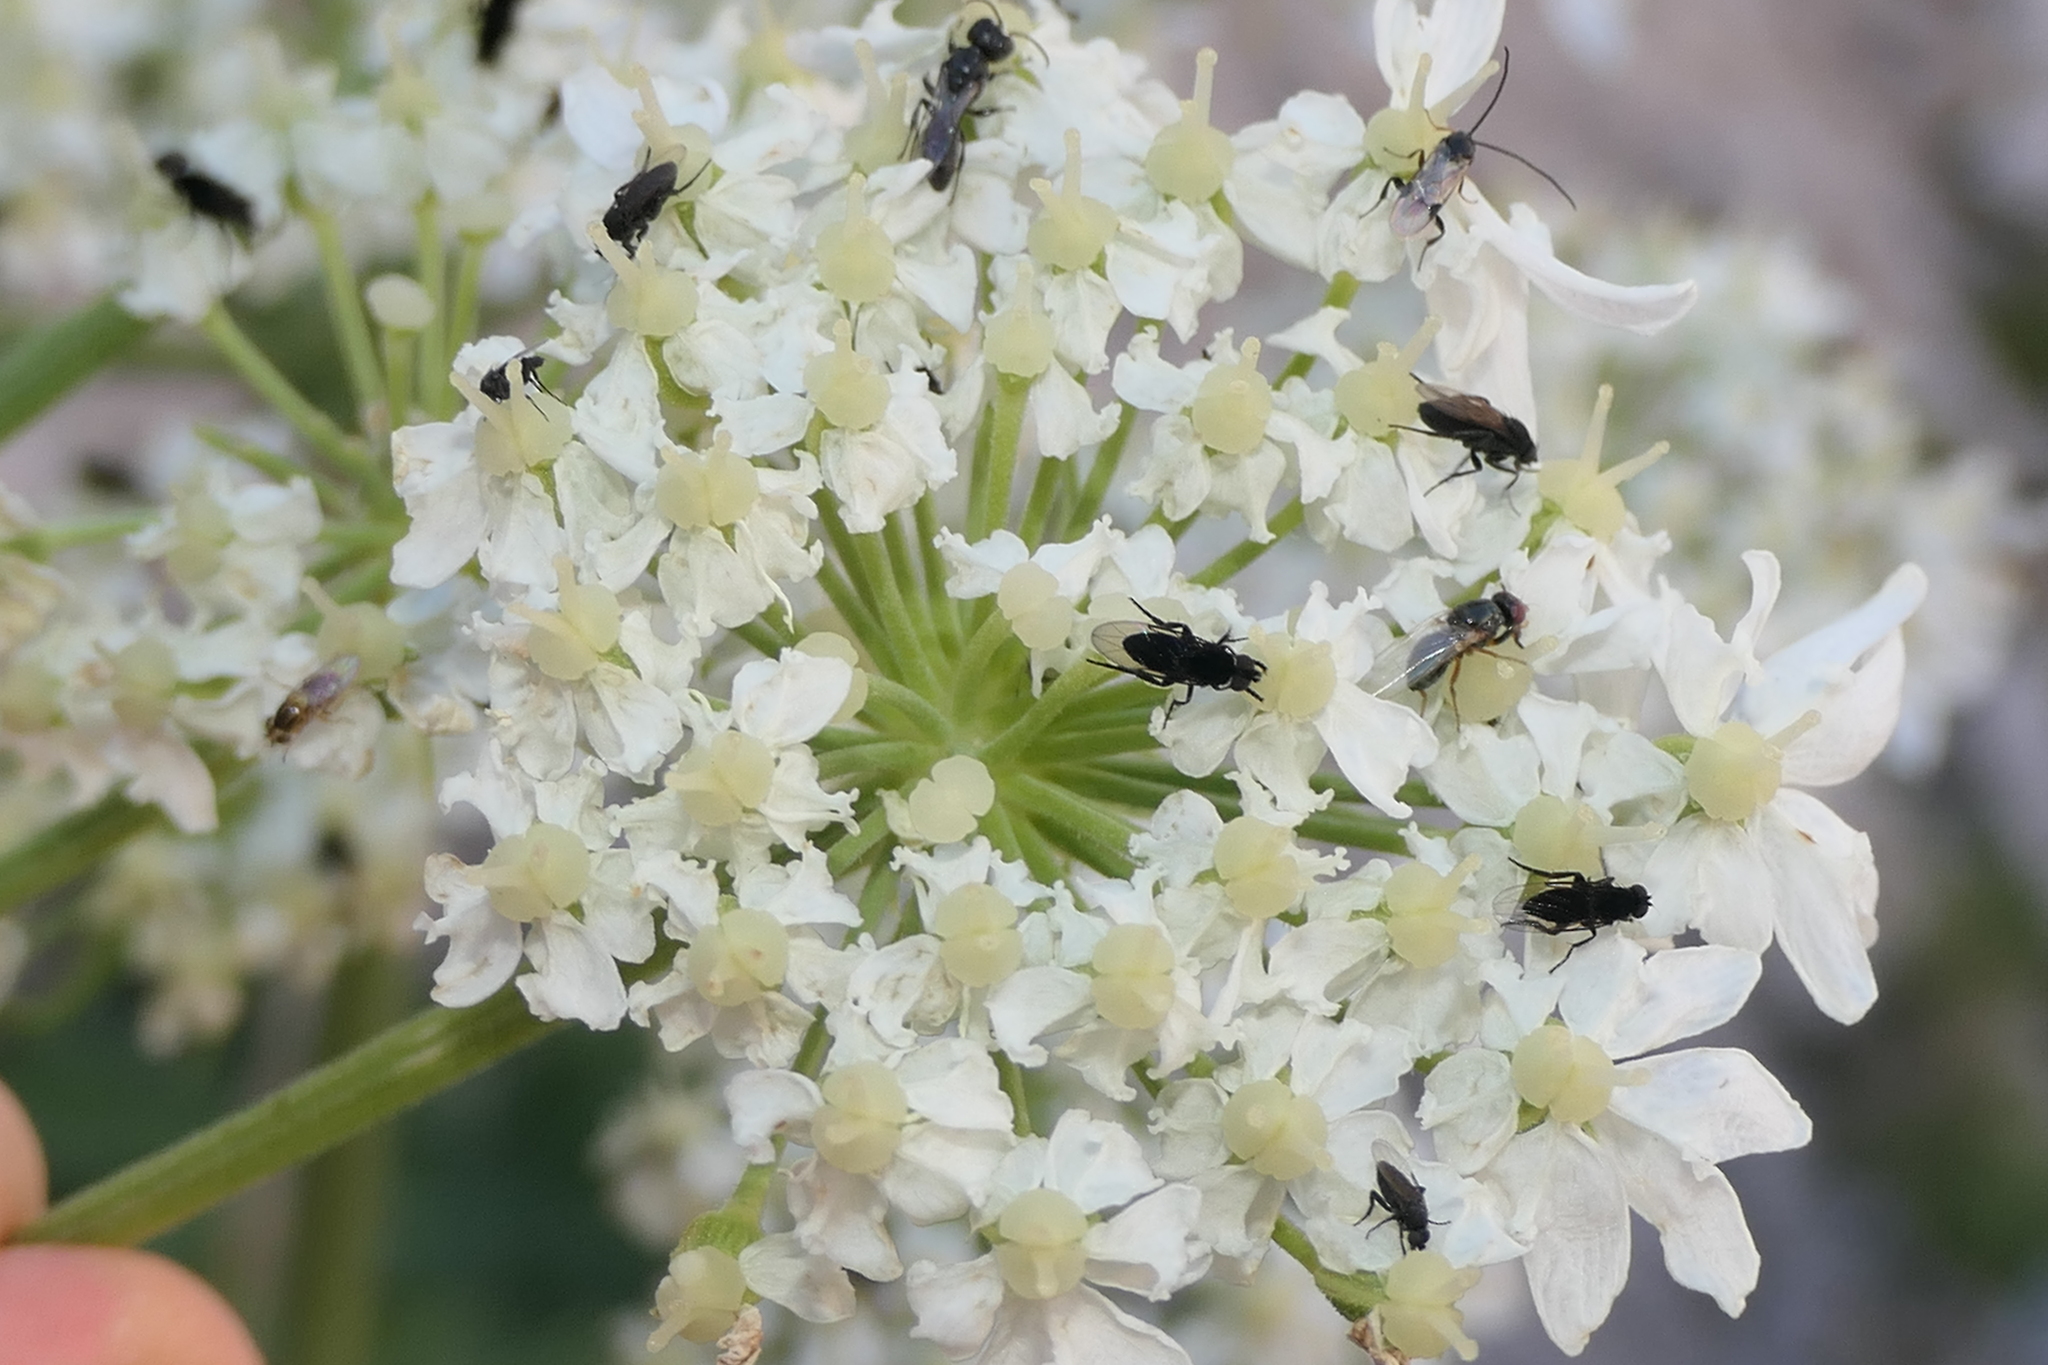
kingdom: Plantae
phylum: Tracheophyta
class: Magnoliopsida
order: Apiales
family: Apiaceae
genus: Heracleum
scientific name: Heracleum sphondylium
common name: Hogweed
